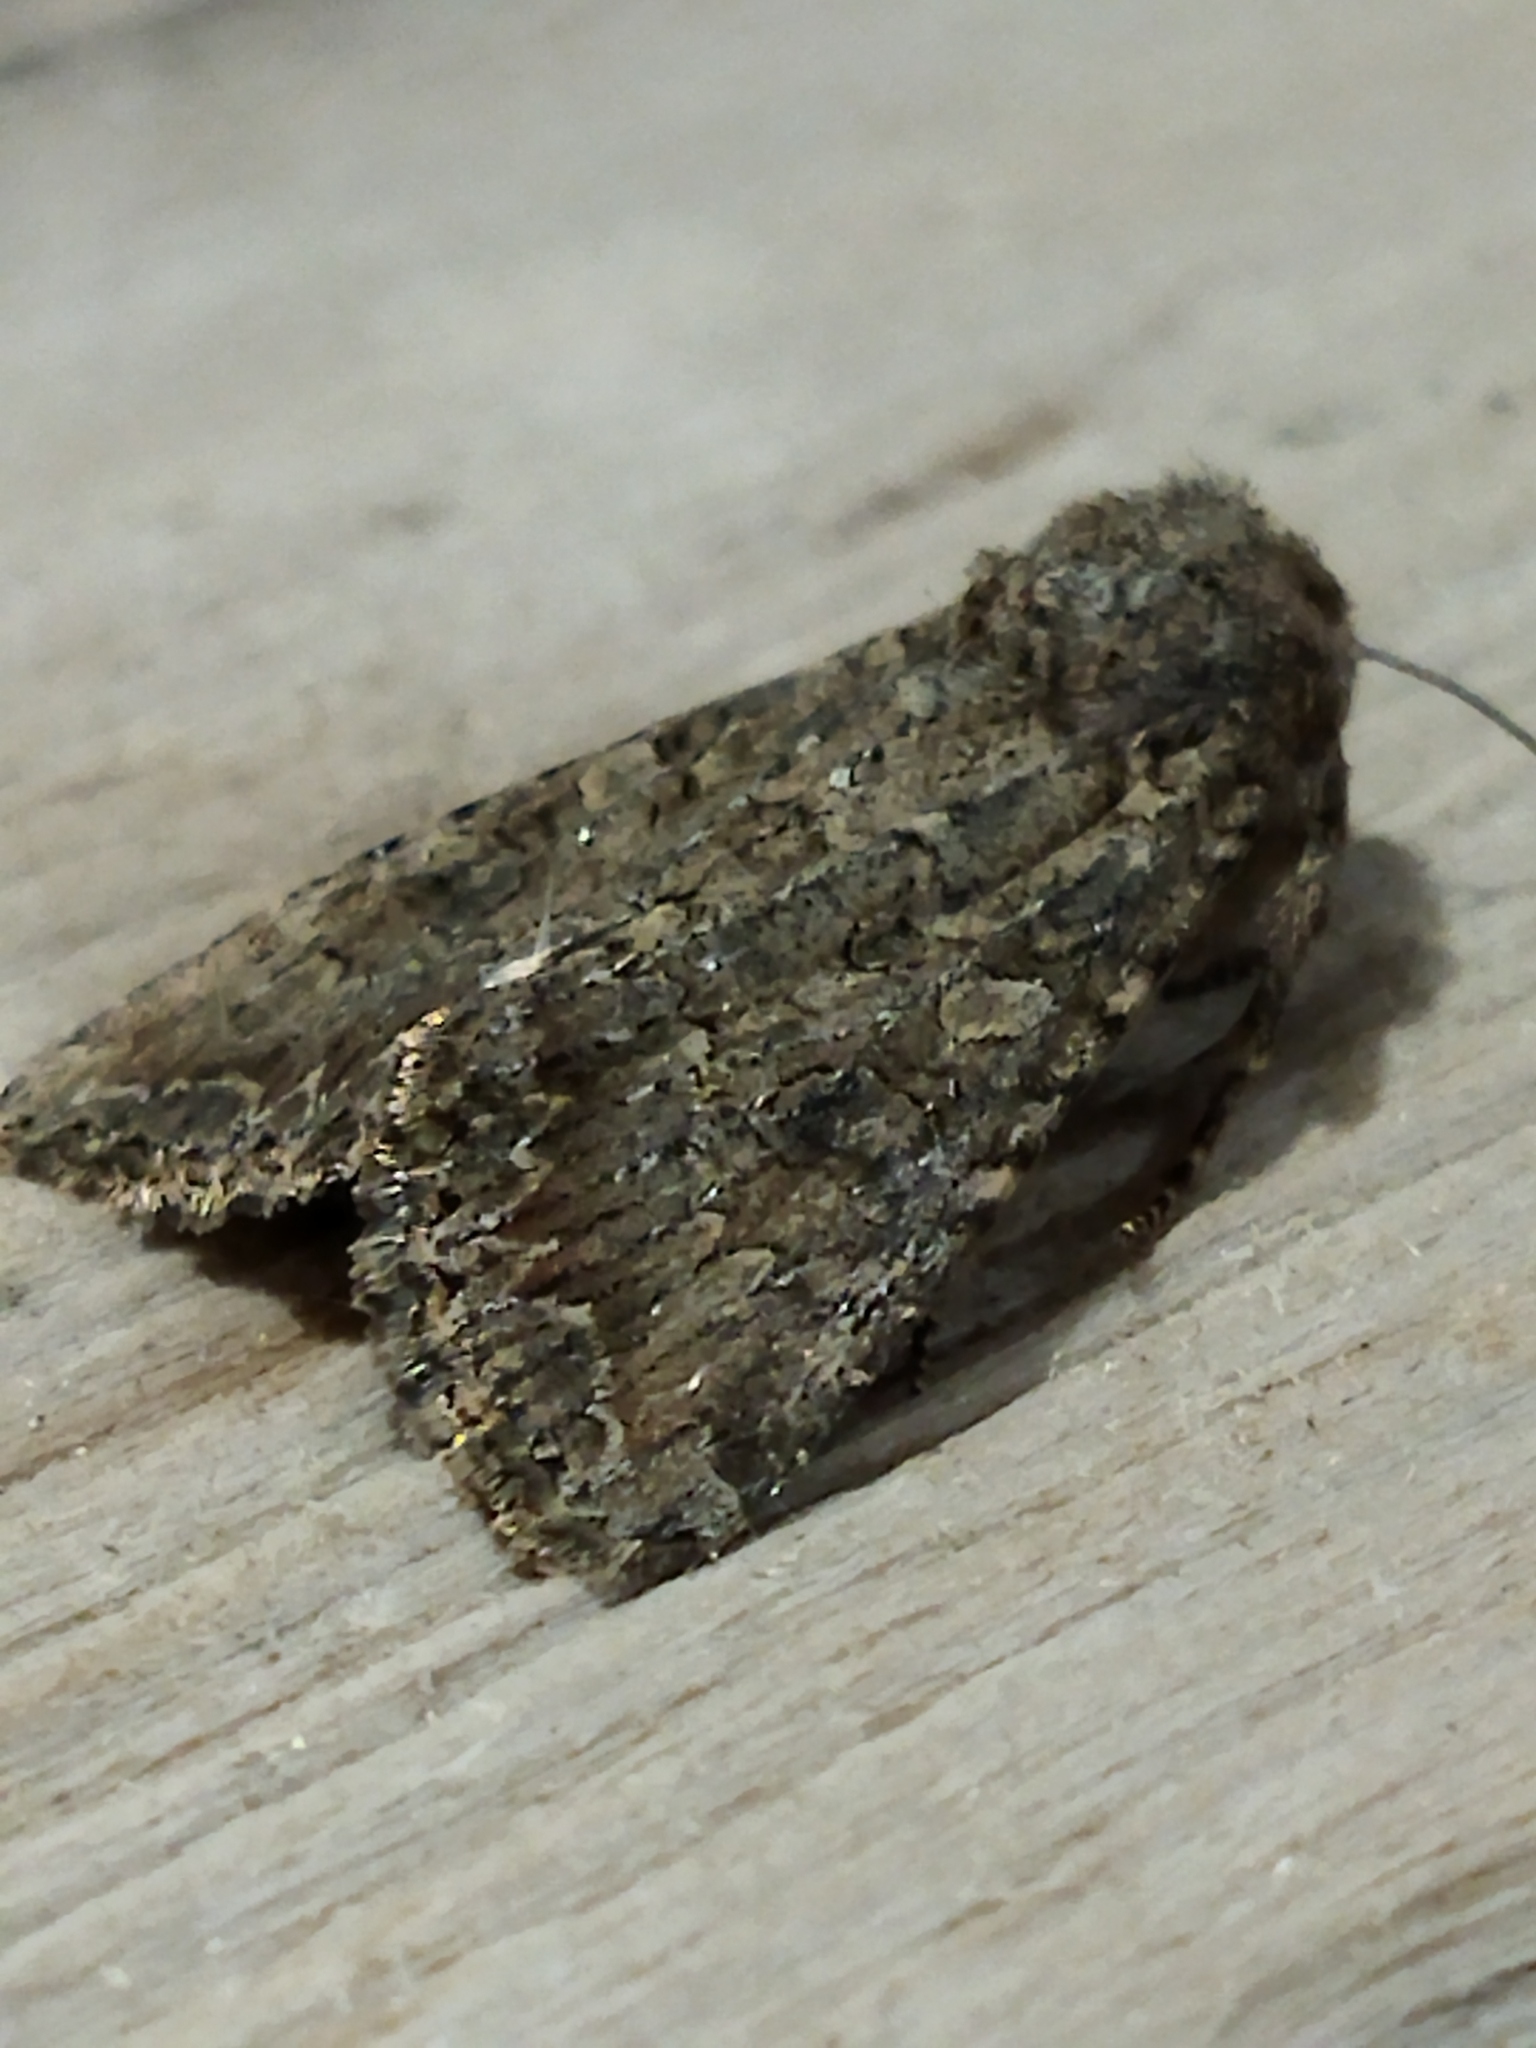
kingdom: Animalia
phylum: Arthropoda
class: Insecta
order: Lepidoptera
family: Noctuidae
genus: Anarta
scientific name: Anarta trifolii
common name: Clover cutworm moth
